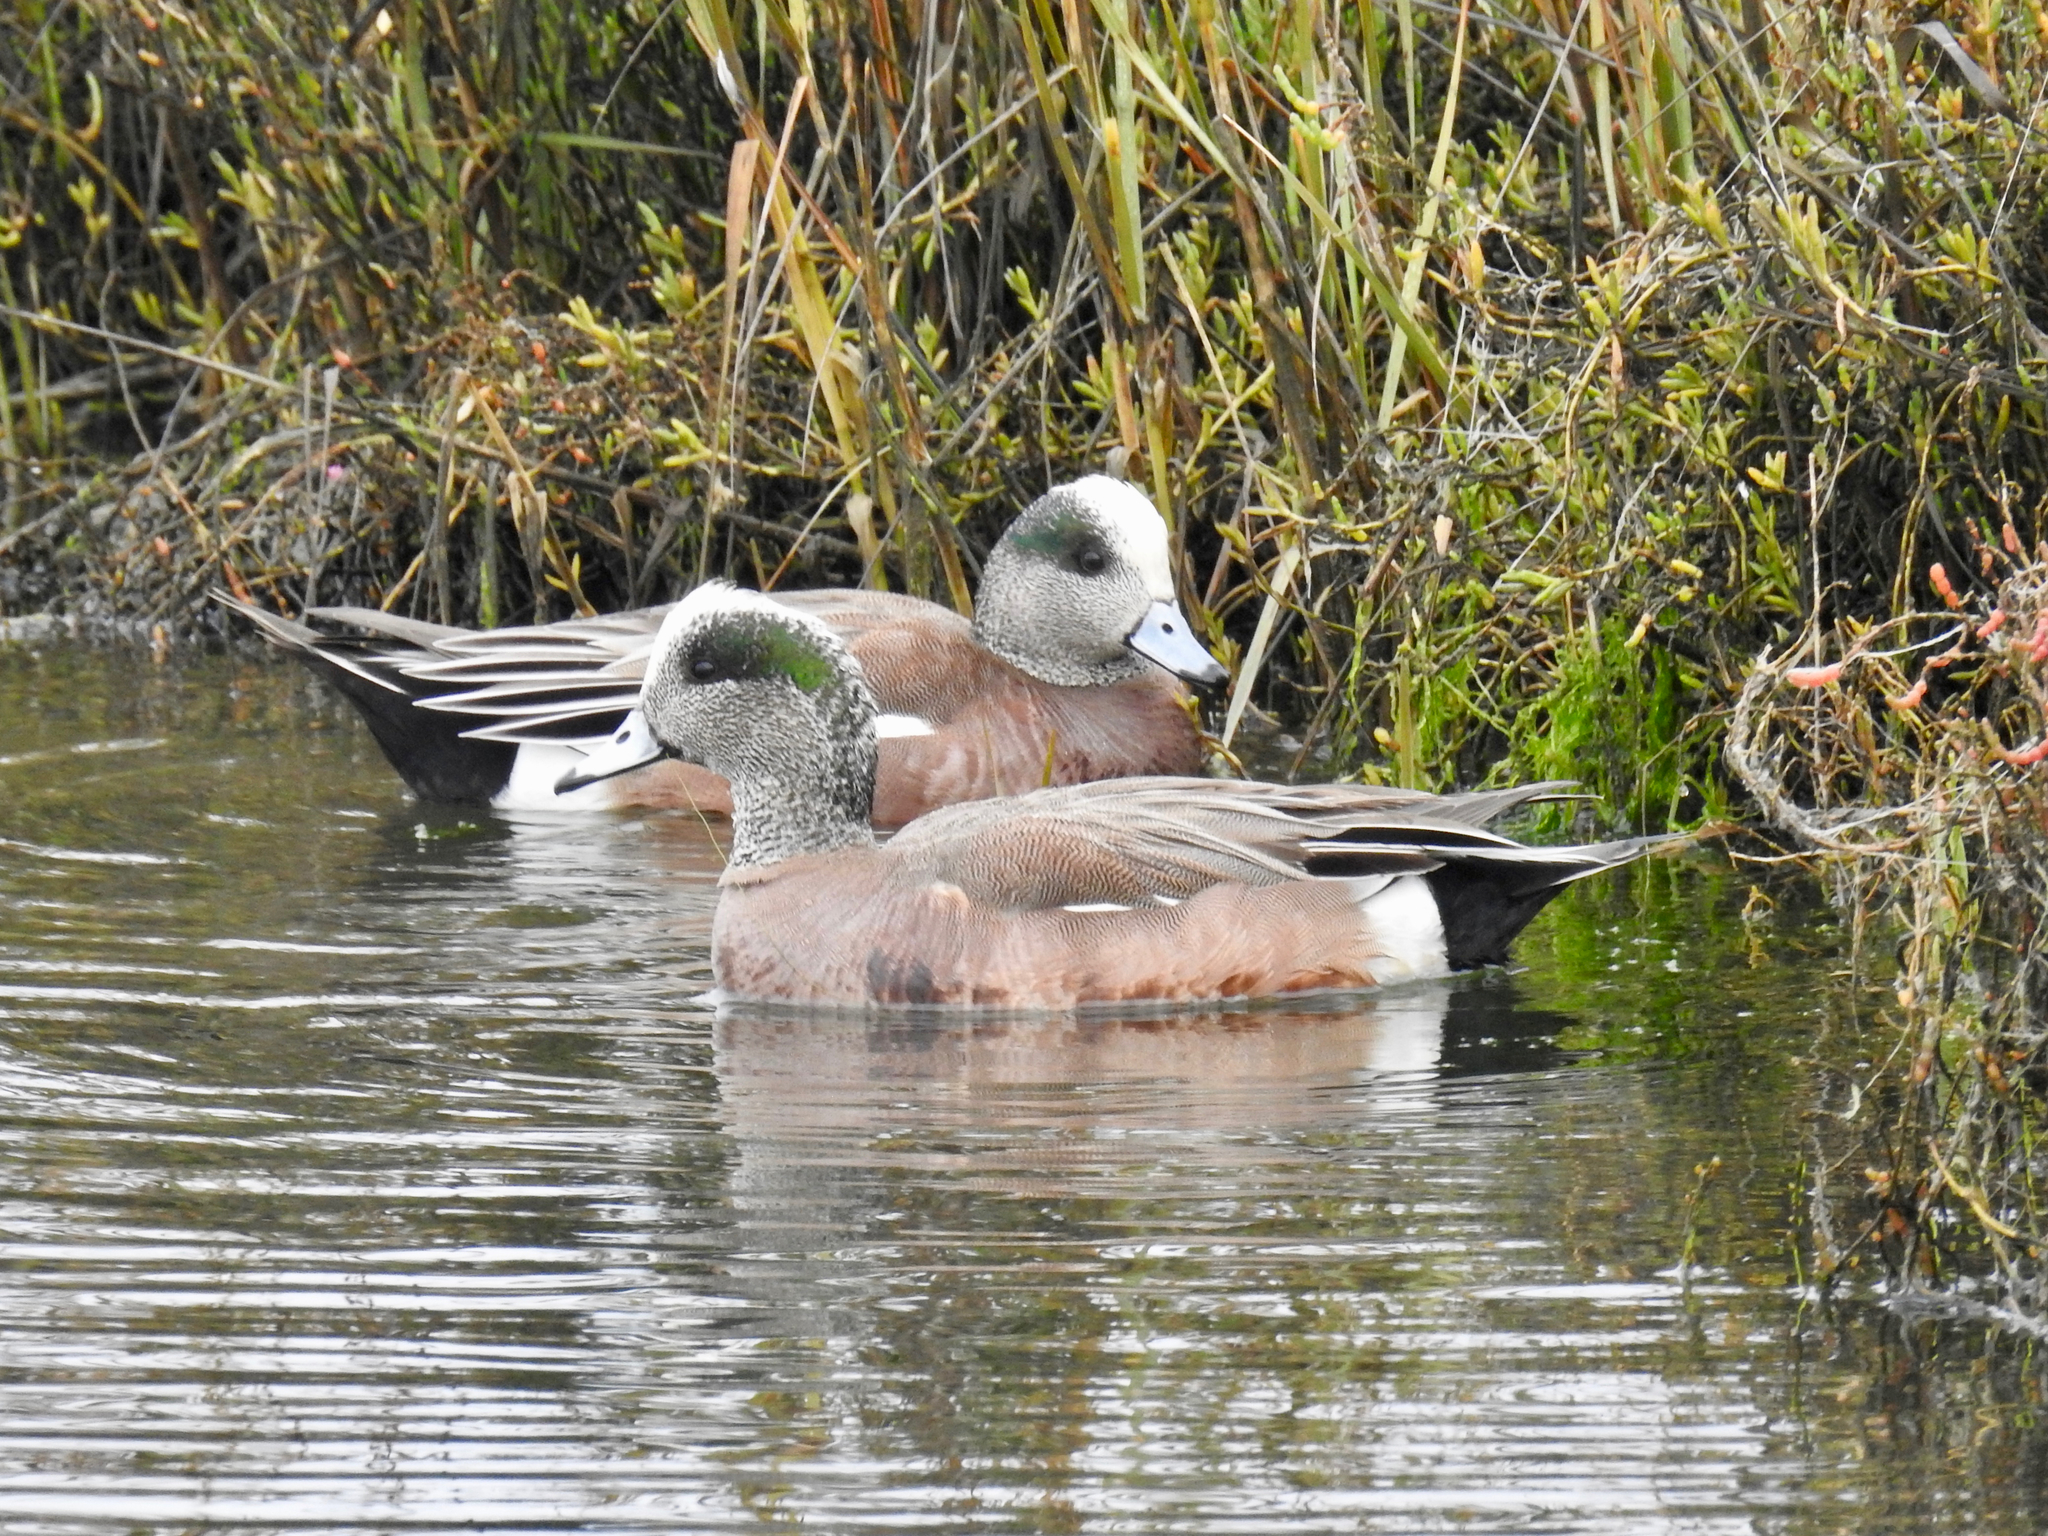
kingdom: Animalia
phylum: Chordata
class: Aves
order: Anseriformes
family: Anatidae
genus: Mareca
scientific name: Mareca americana
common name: American wigeon
